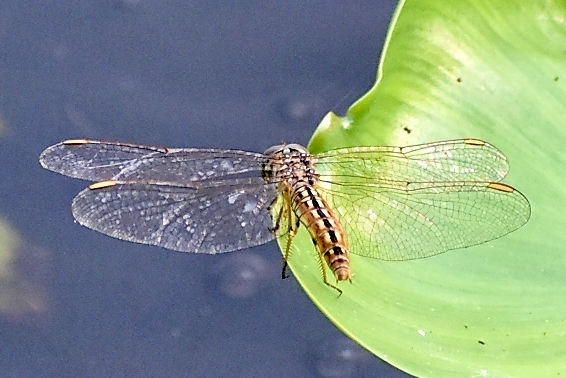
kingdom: Animalia
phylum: Arthropoda
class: Insecta
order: Odonata
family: Libellulidae
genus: Brachythemis
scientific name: Brachythemis contaminata
